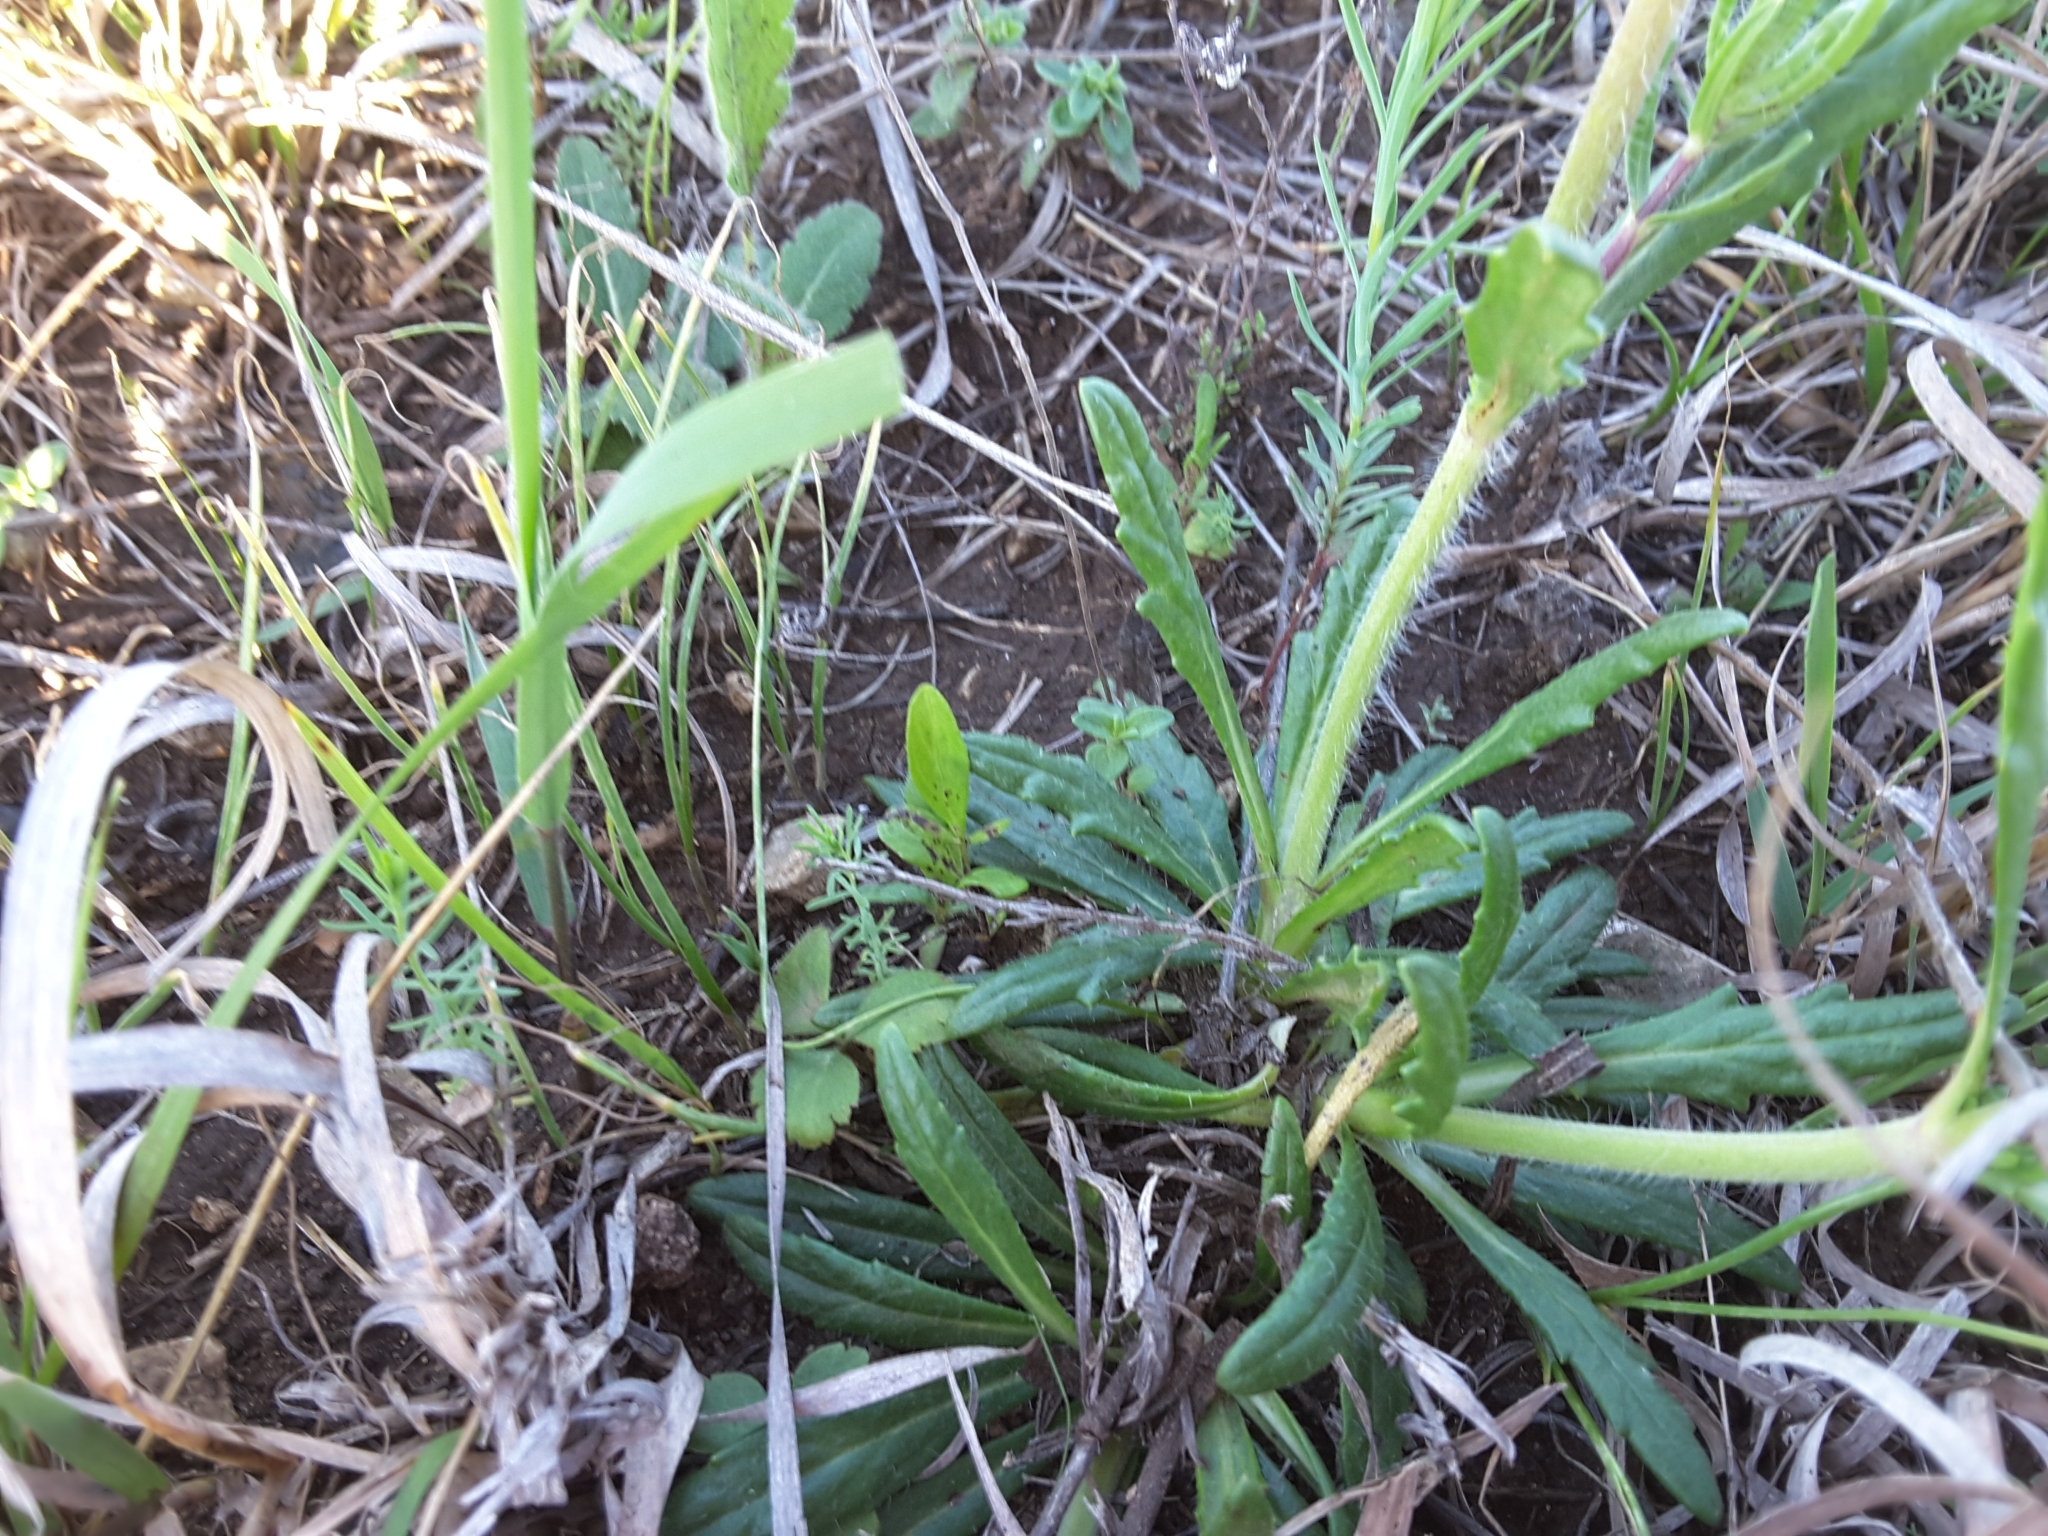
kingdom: Plantae
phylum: Tracheophyta
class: Magnoliopsida
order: Lamiales
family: Lamiaceae
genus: Salvia
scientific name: Salvia texana
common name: Texas sage
